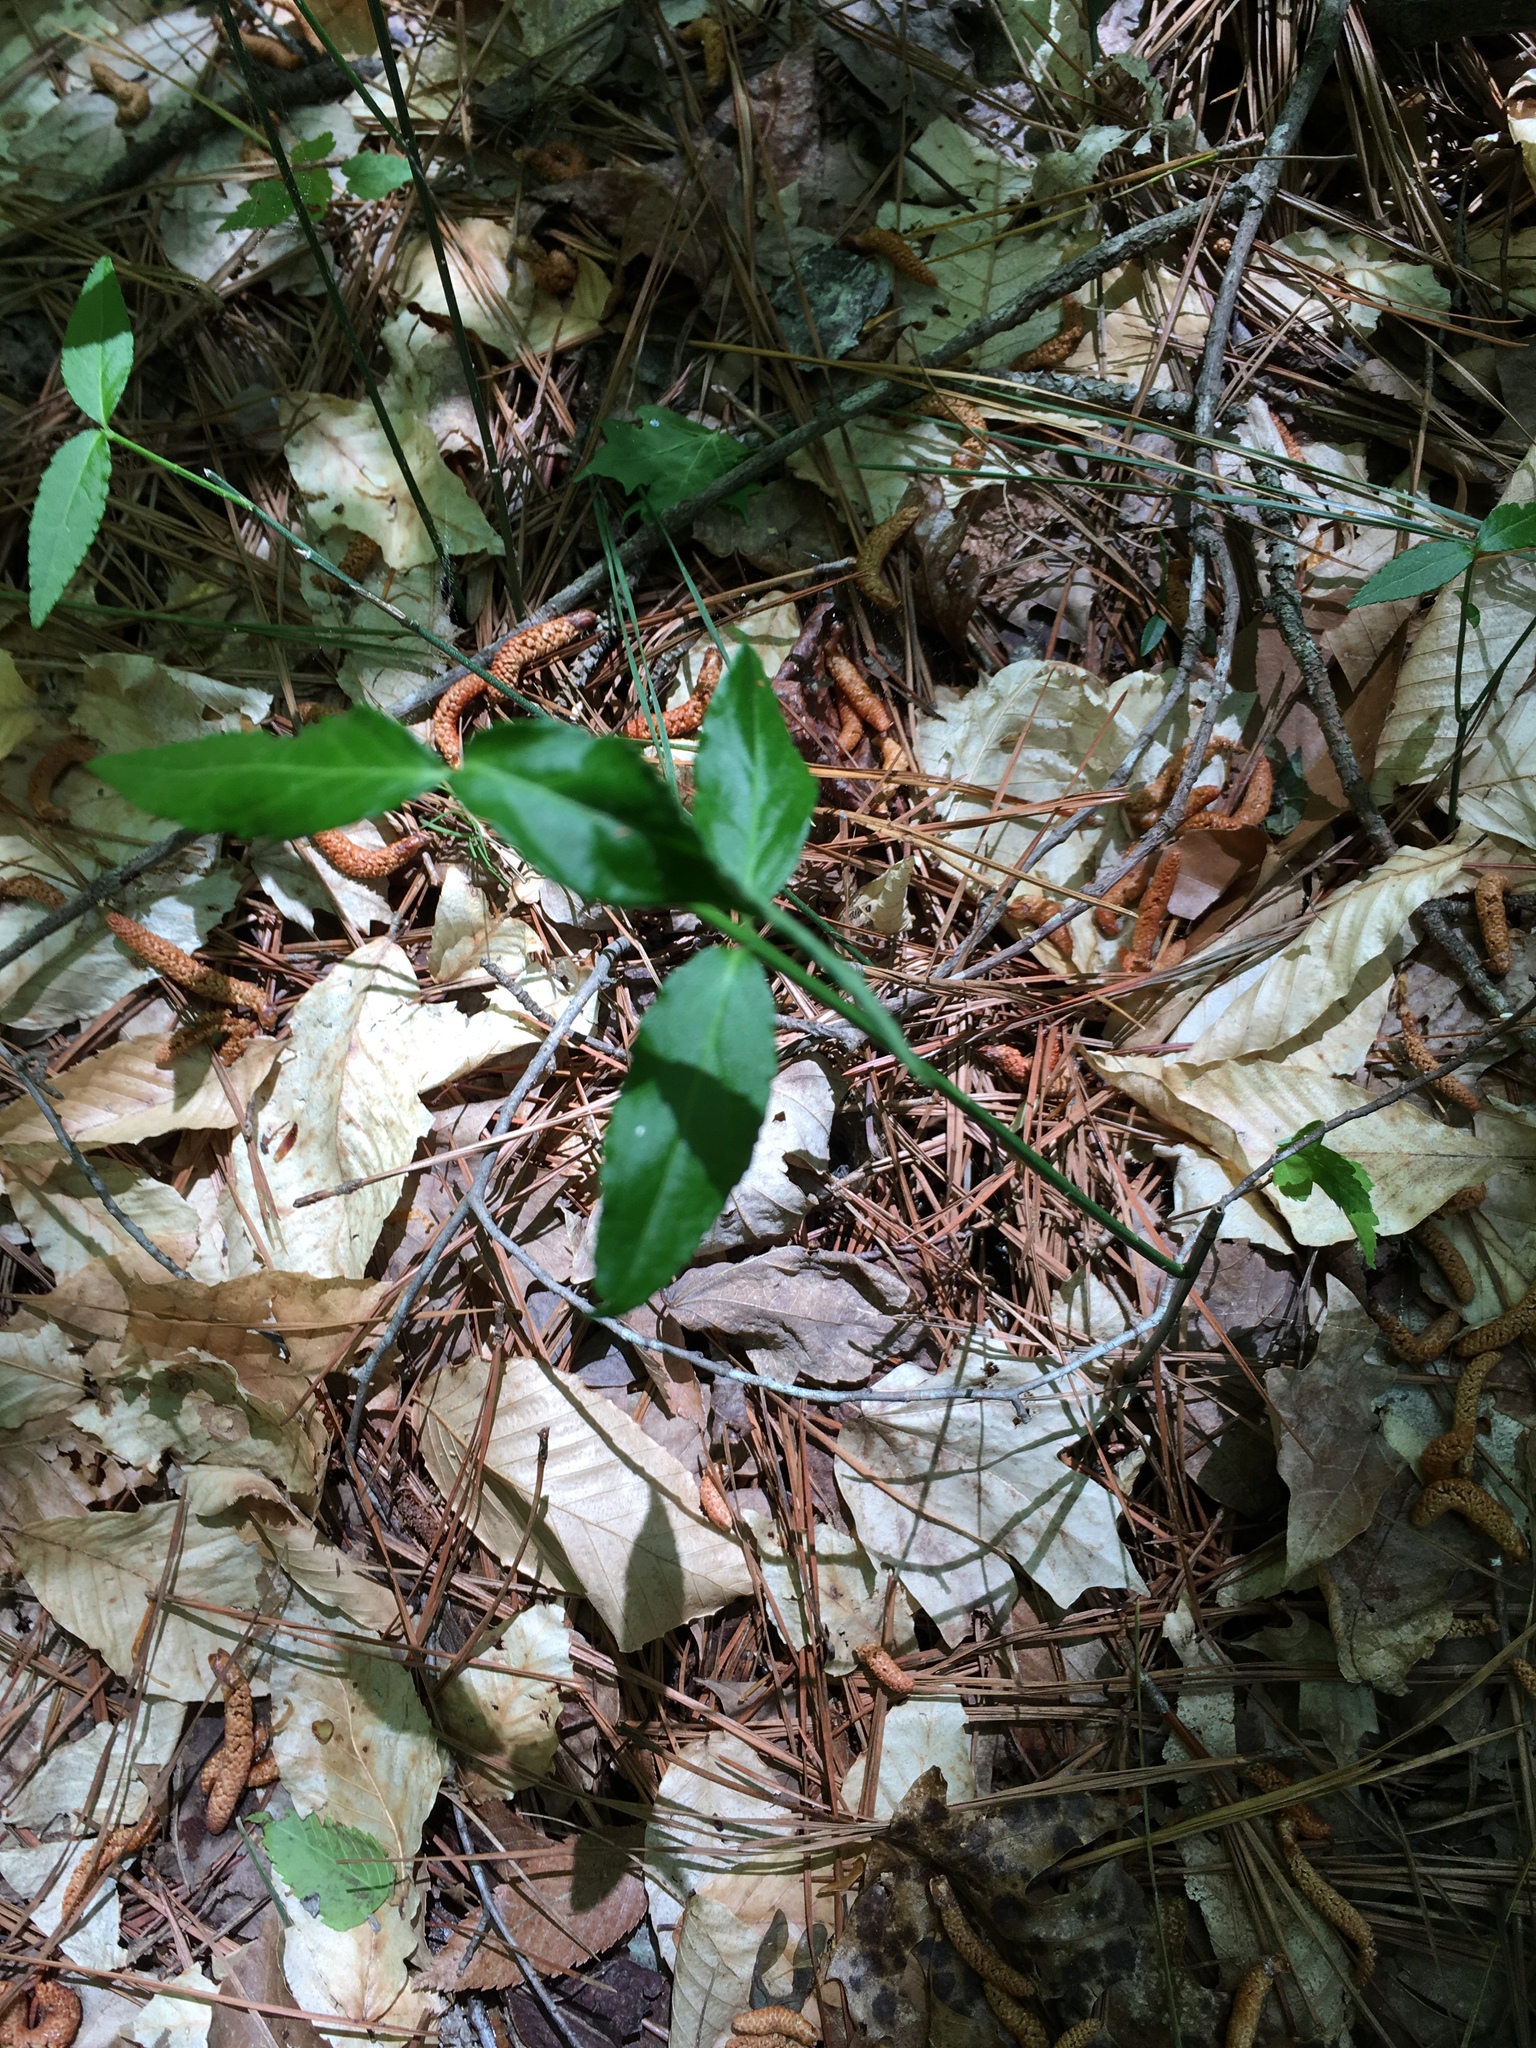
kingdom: Plantae
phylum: Tracheophyta
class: Magnoliopsida
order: Celastrales
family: Celastraceae
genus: Euonymus
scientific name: Euonymus americanus
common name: Bursting-heart
